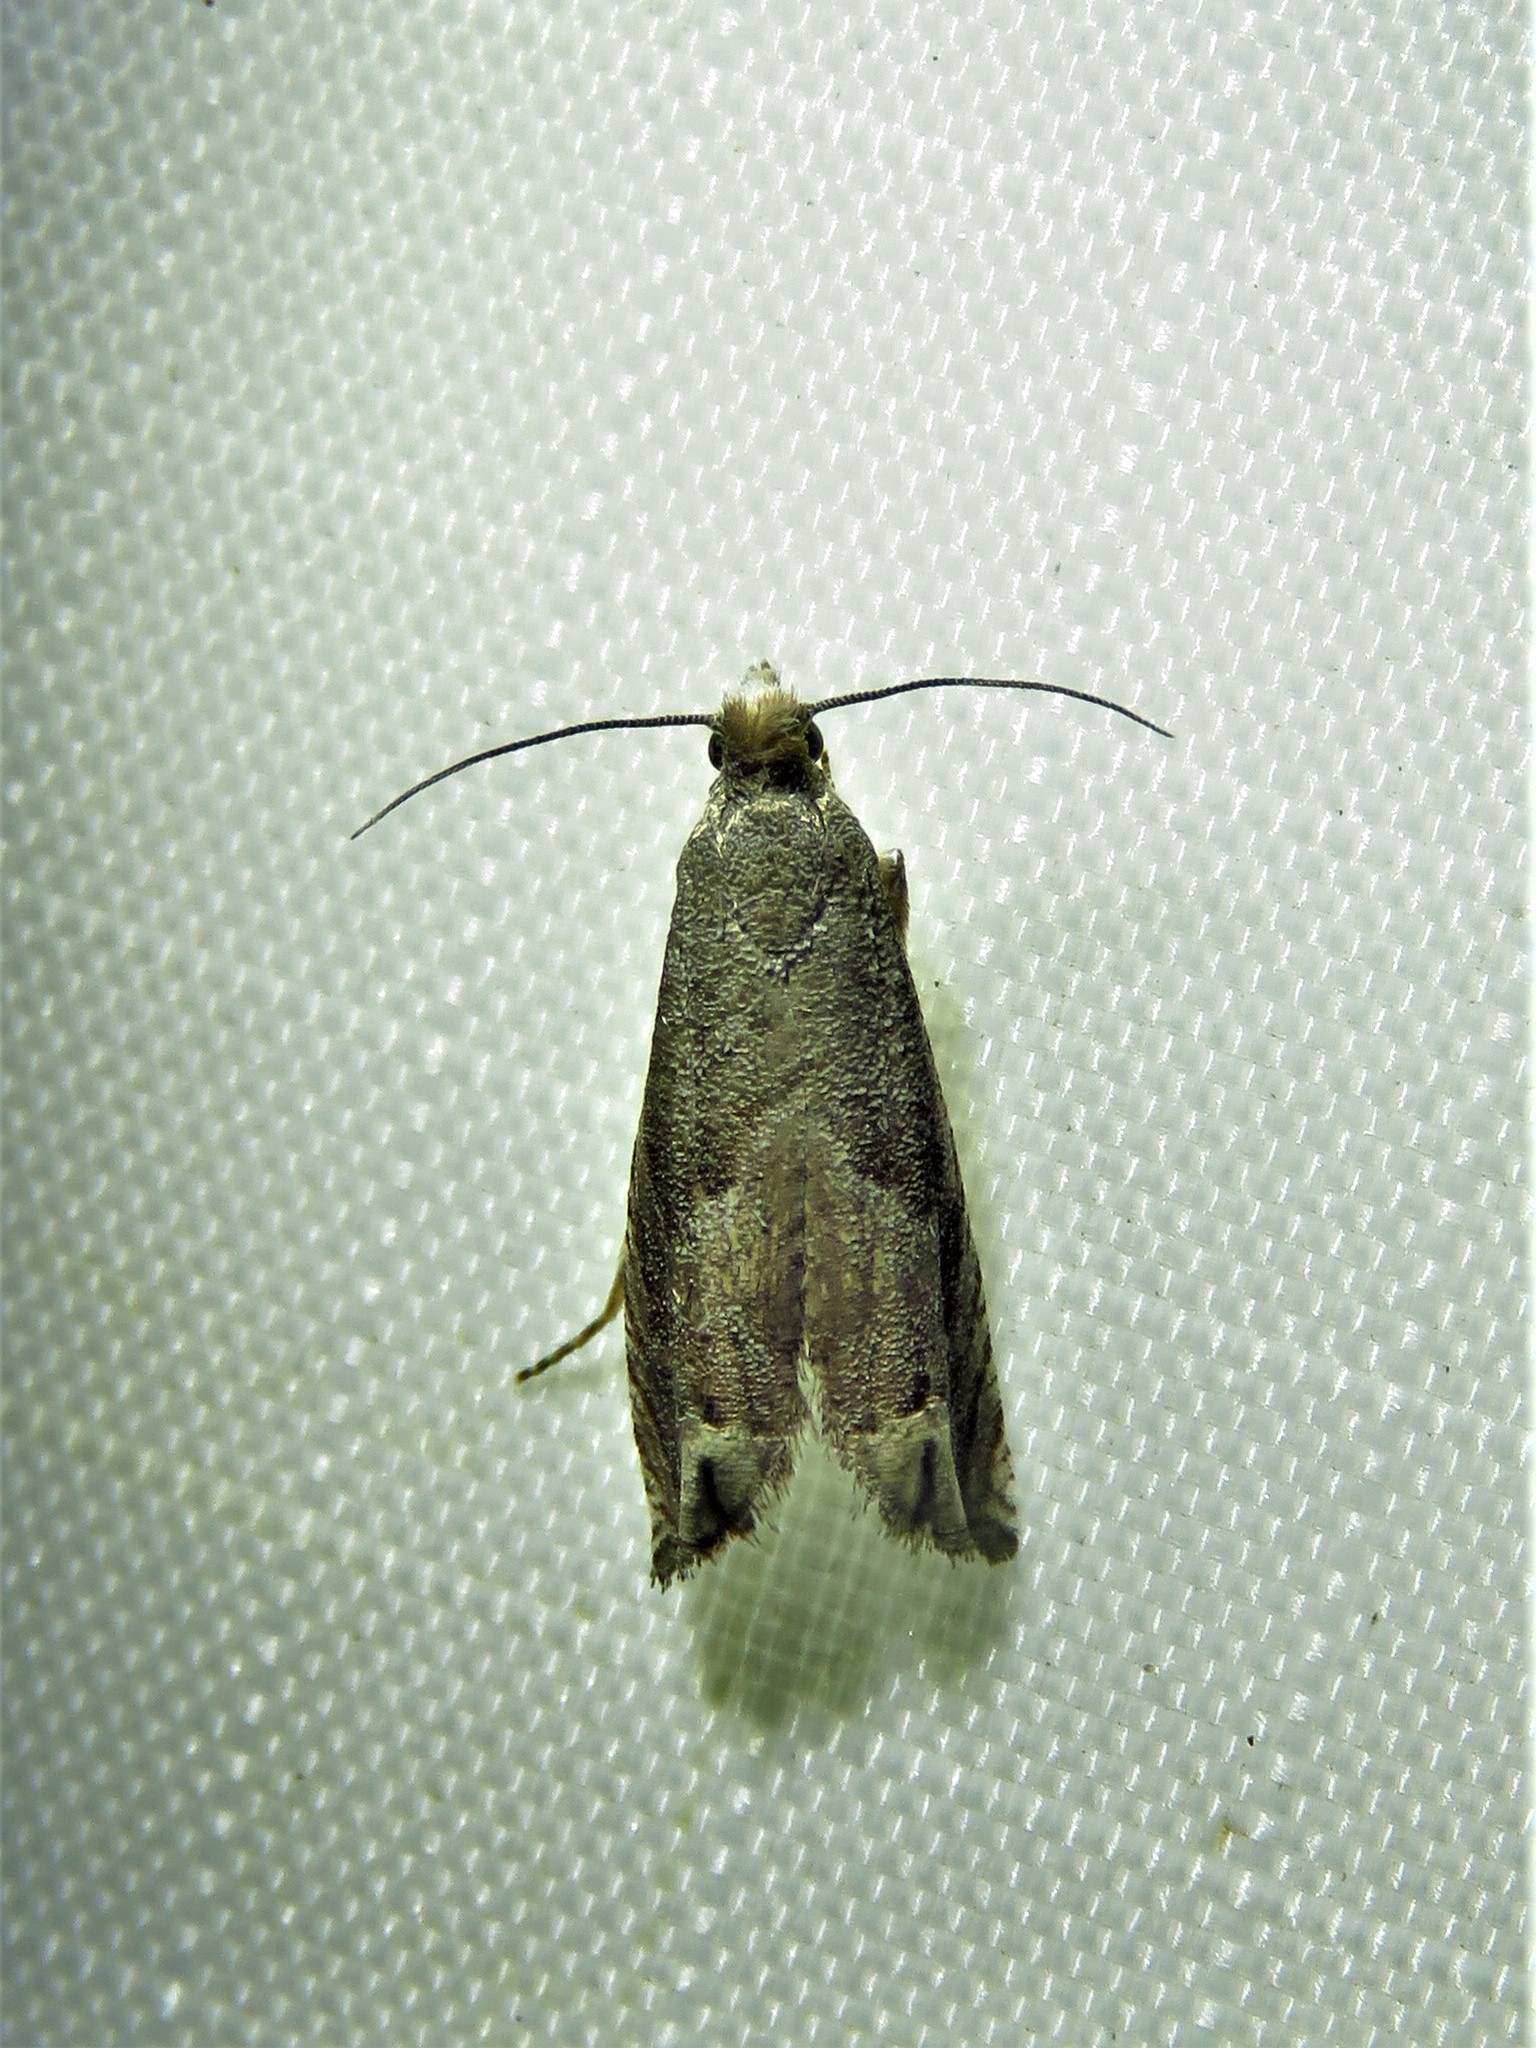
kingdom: Animalia
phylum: Arthropoda
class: Insecta
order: Lepidoptera
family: Tortricidae
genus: Epiblema
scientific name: Epiblema strenuana
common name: Ragweed borer moth
